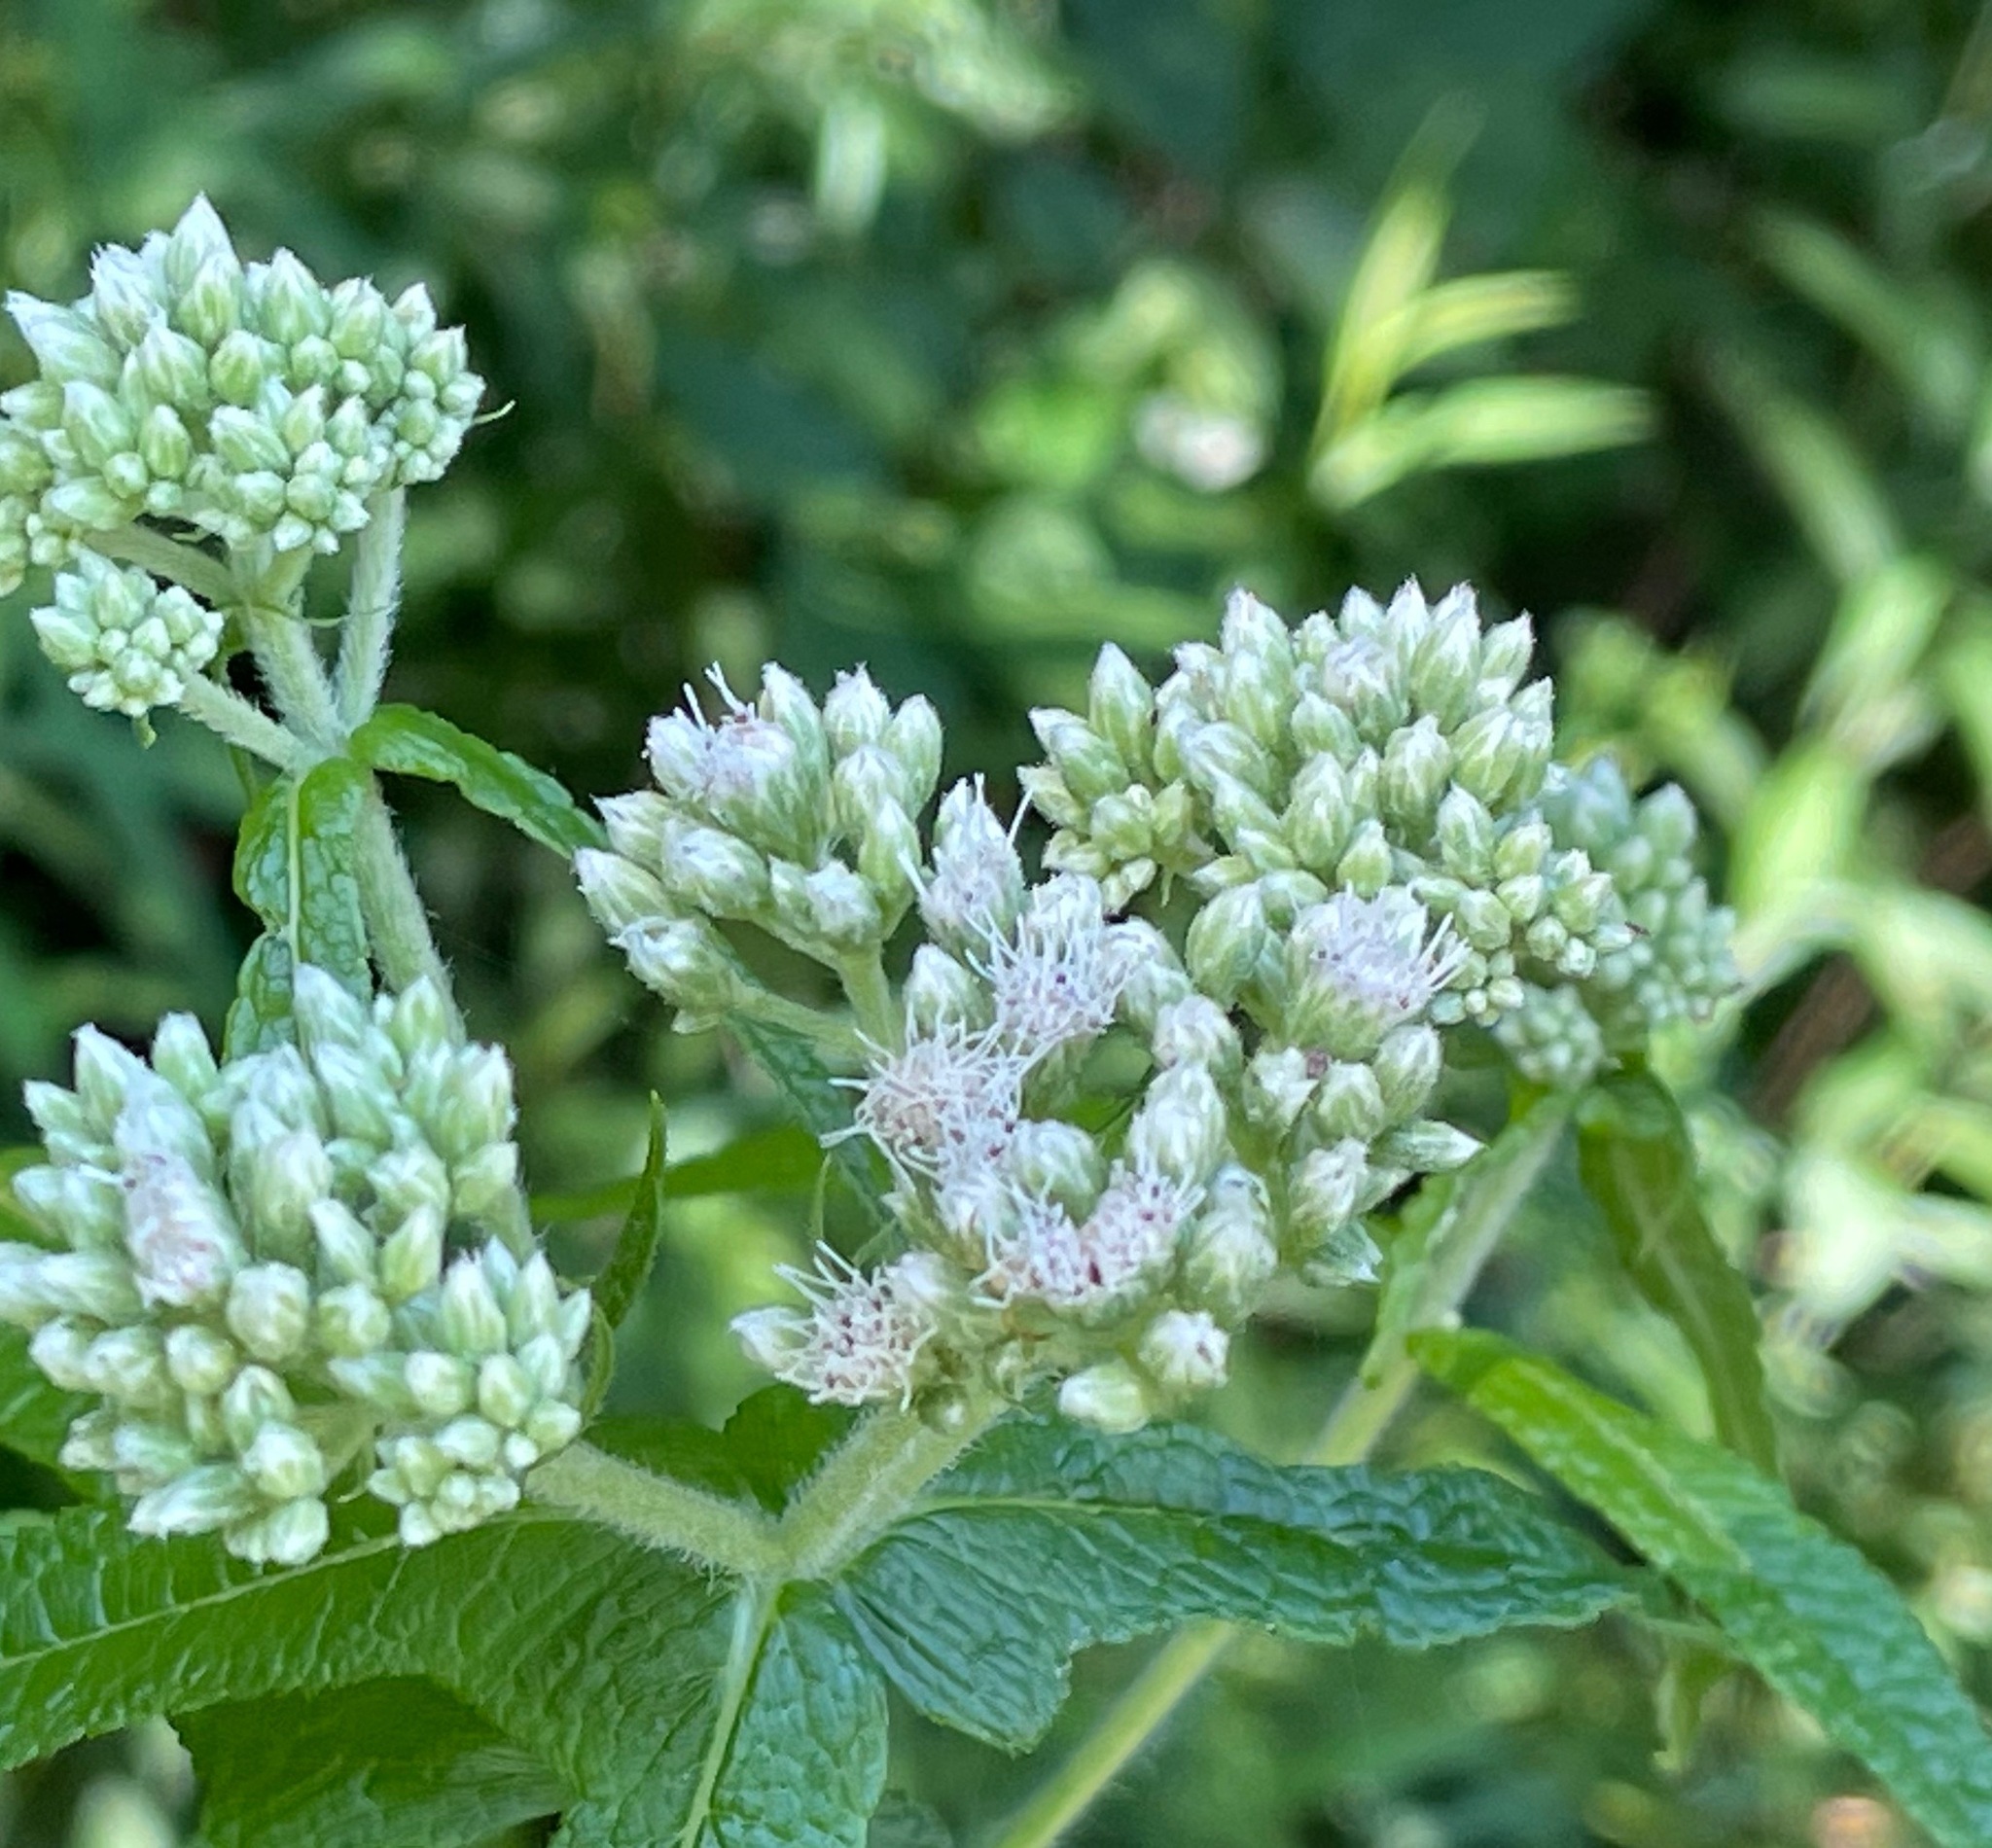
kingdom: Plantae
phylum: Tracheophyta
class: Magnoliopsida
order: Asterales
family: Asteraceae
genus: Eupatorium
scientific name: Eupatorium perfoliatum
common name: Boneset
